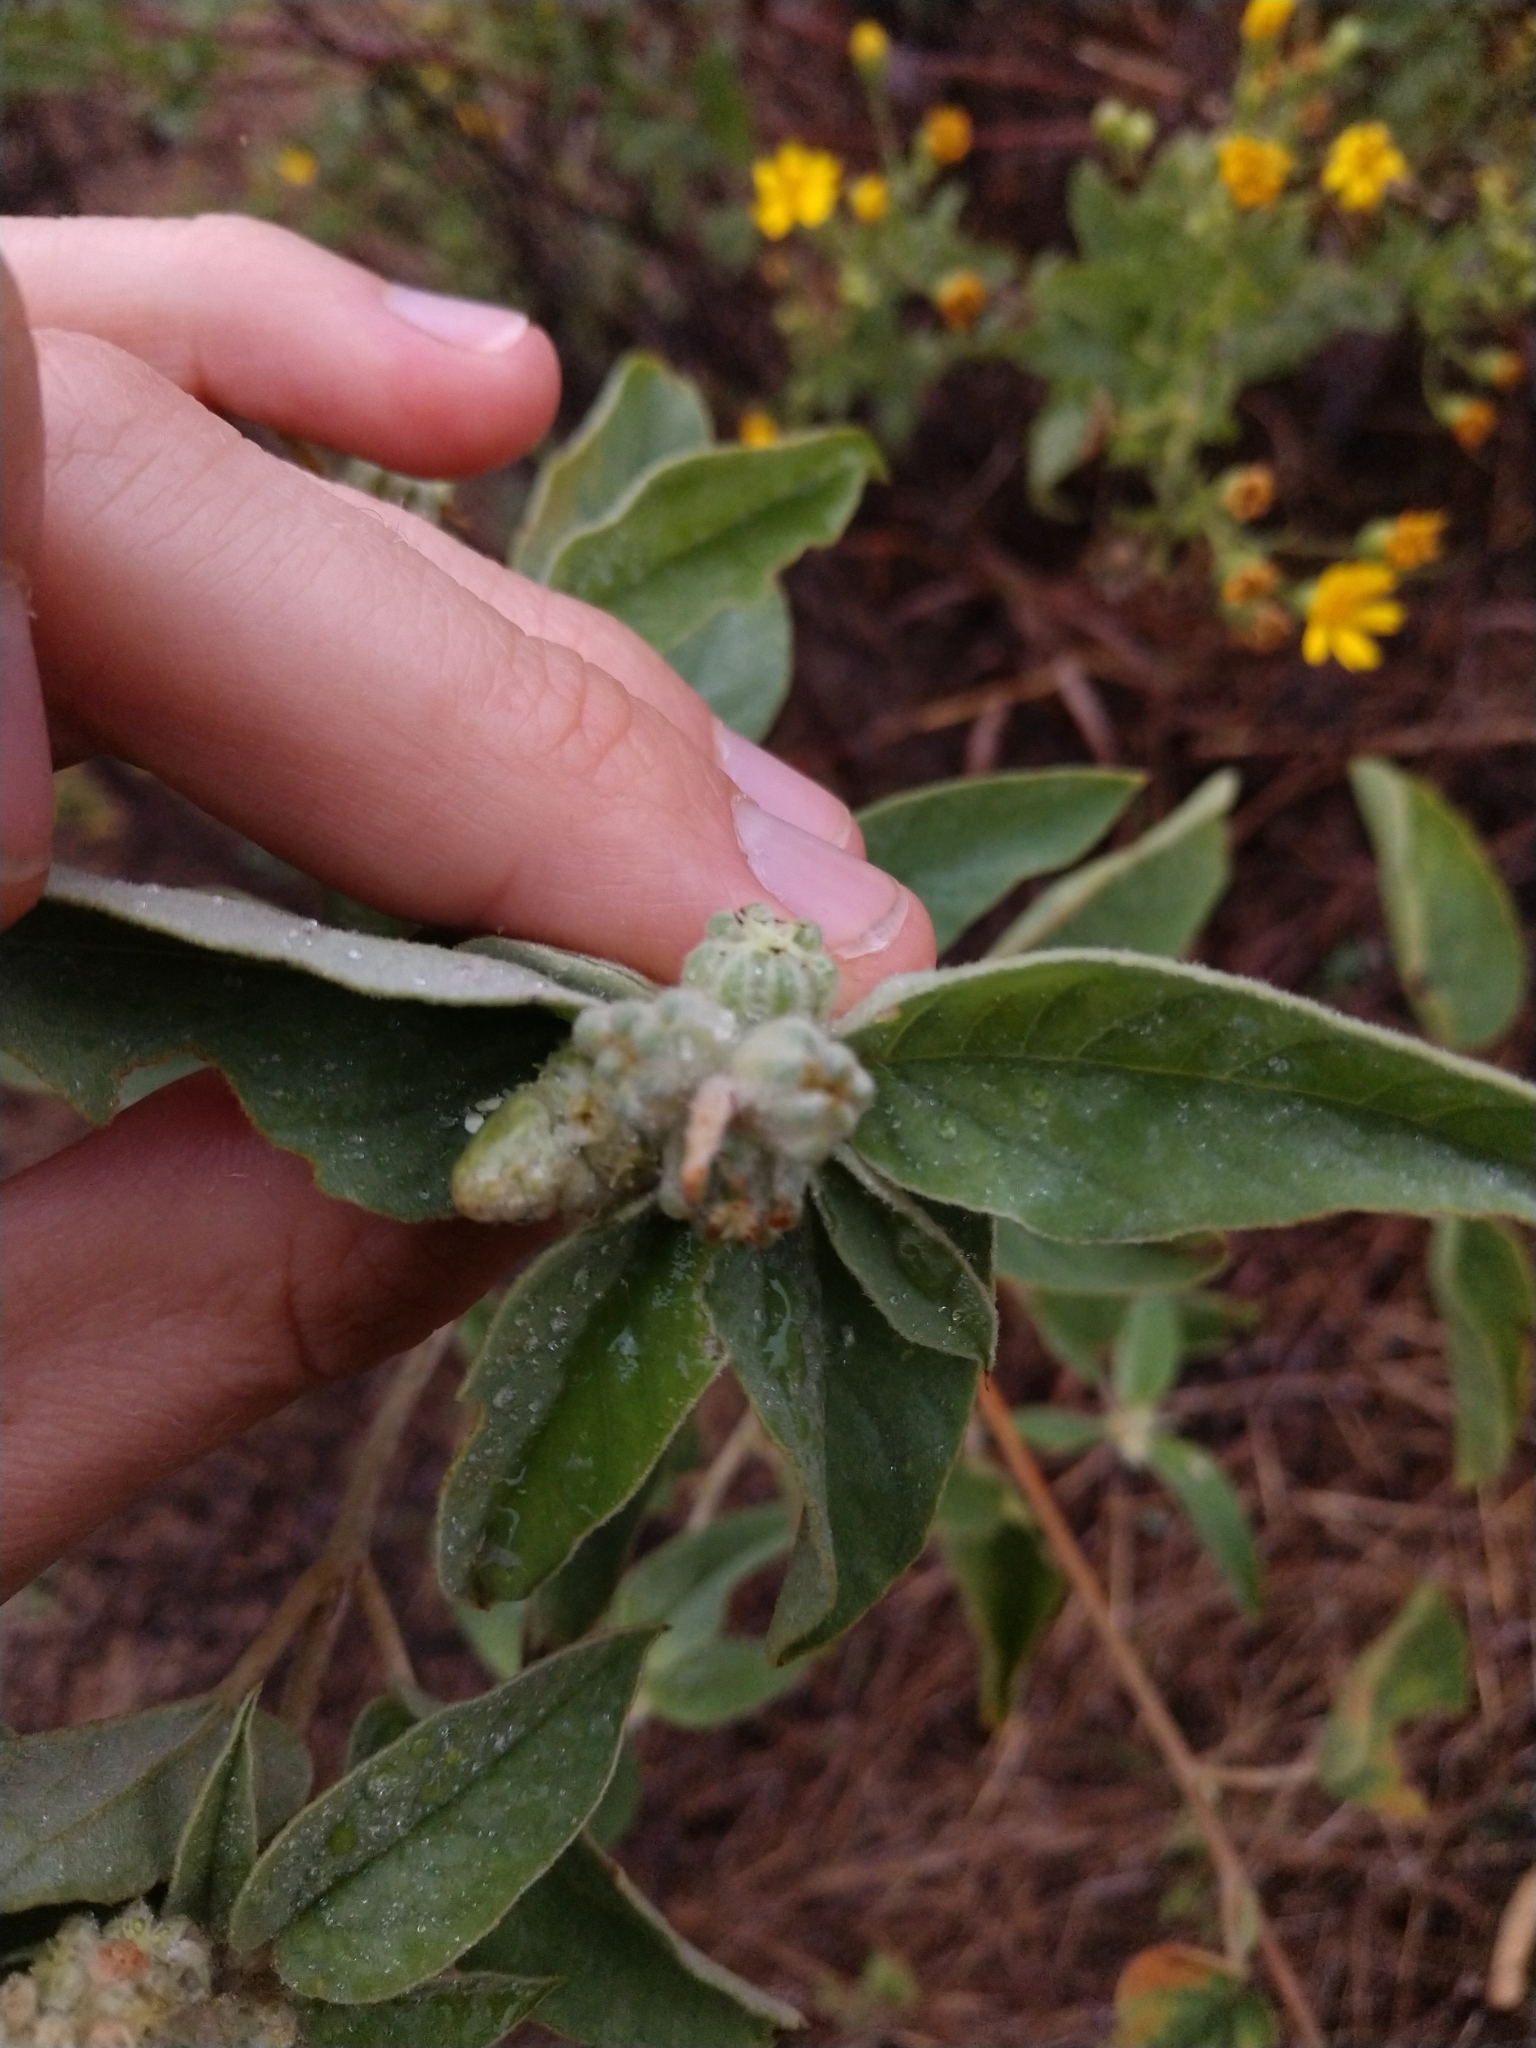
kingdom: Plantae
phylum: Tracheophyta
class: Magnoliopsida
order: Malpighiales
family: Euphorbiaceae
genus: Croton
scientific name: Croton lindheimeri
